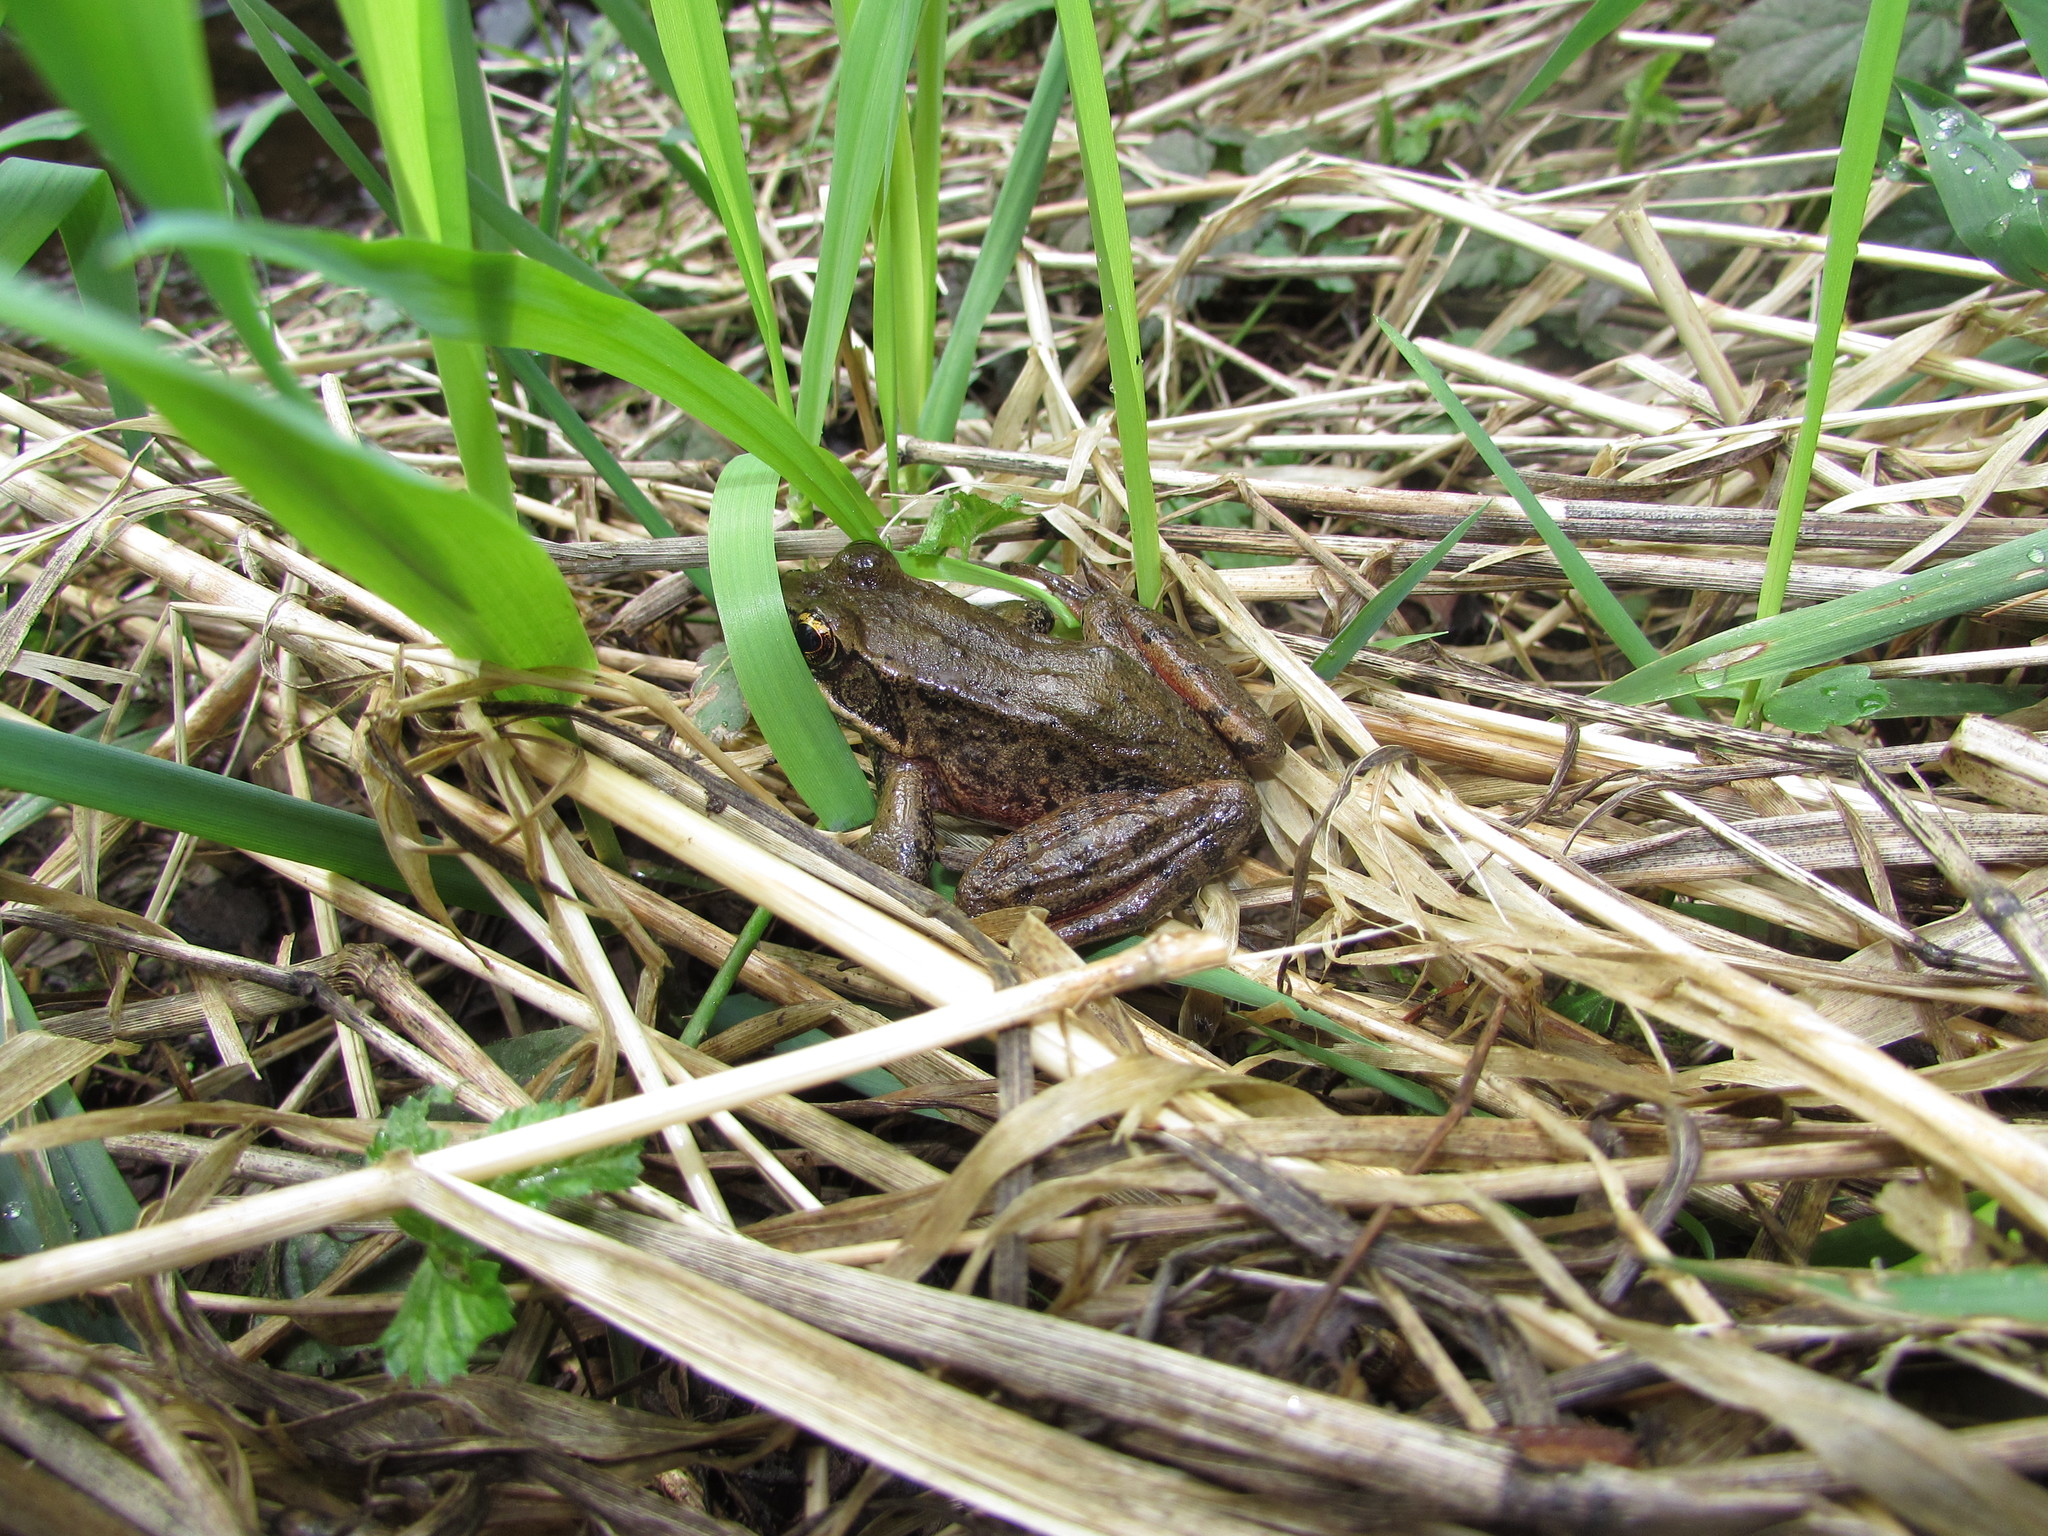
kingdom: Animalia
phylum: Chordata
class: Amphibia
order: Anura
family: Ranidae
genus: Rana
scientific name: Rana aurora
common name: Red-legged frog
